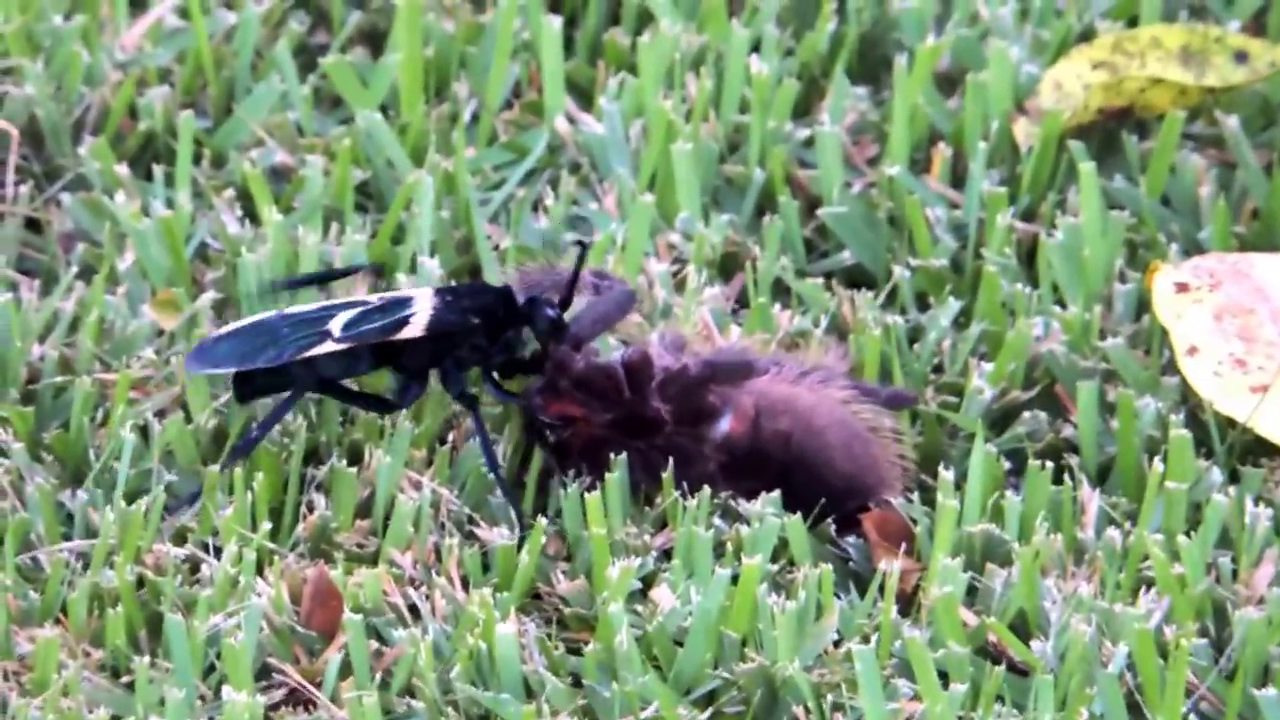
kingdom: Animalia
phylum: Arthropoda
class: Arachnida
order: Araneae
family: Theraphosidae
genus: Lasiodora
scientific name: Lasiodora parahybana
